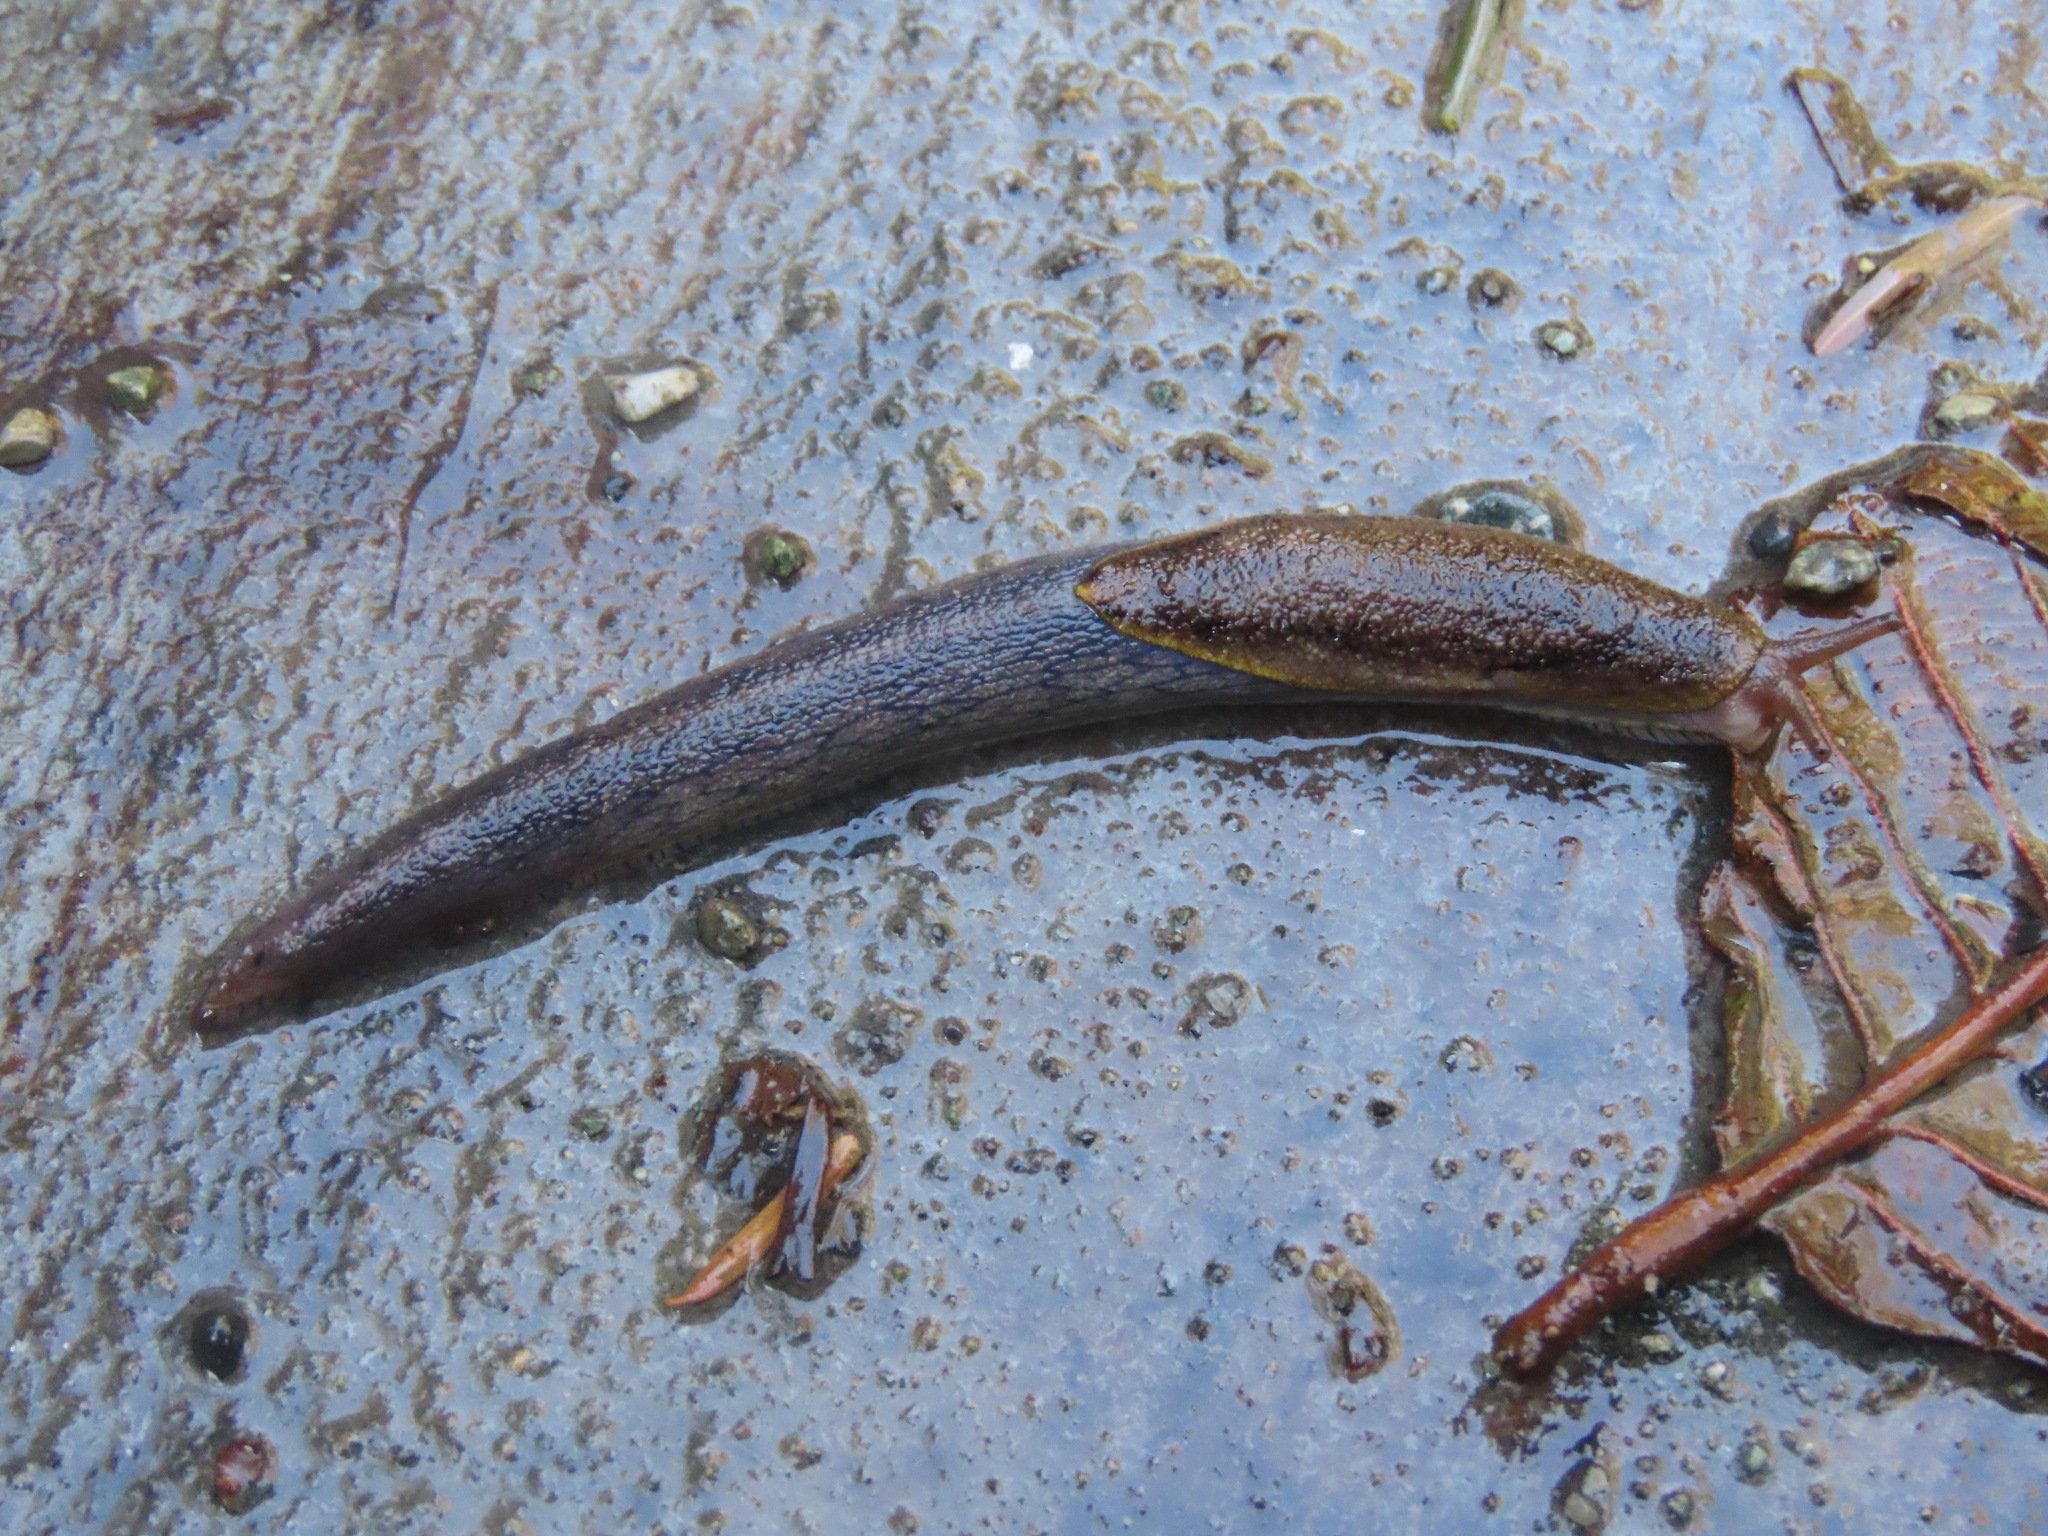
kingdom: Animalia
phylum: Mollusca
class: Gastropoda
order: Stylommatophora
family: Ariolimacidae
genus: Prophysaon
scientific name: Prophysaon foliolatum
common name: Yellow-bordered taildropper
